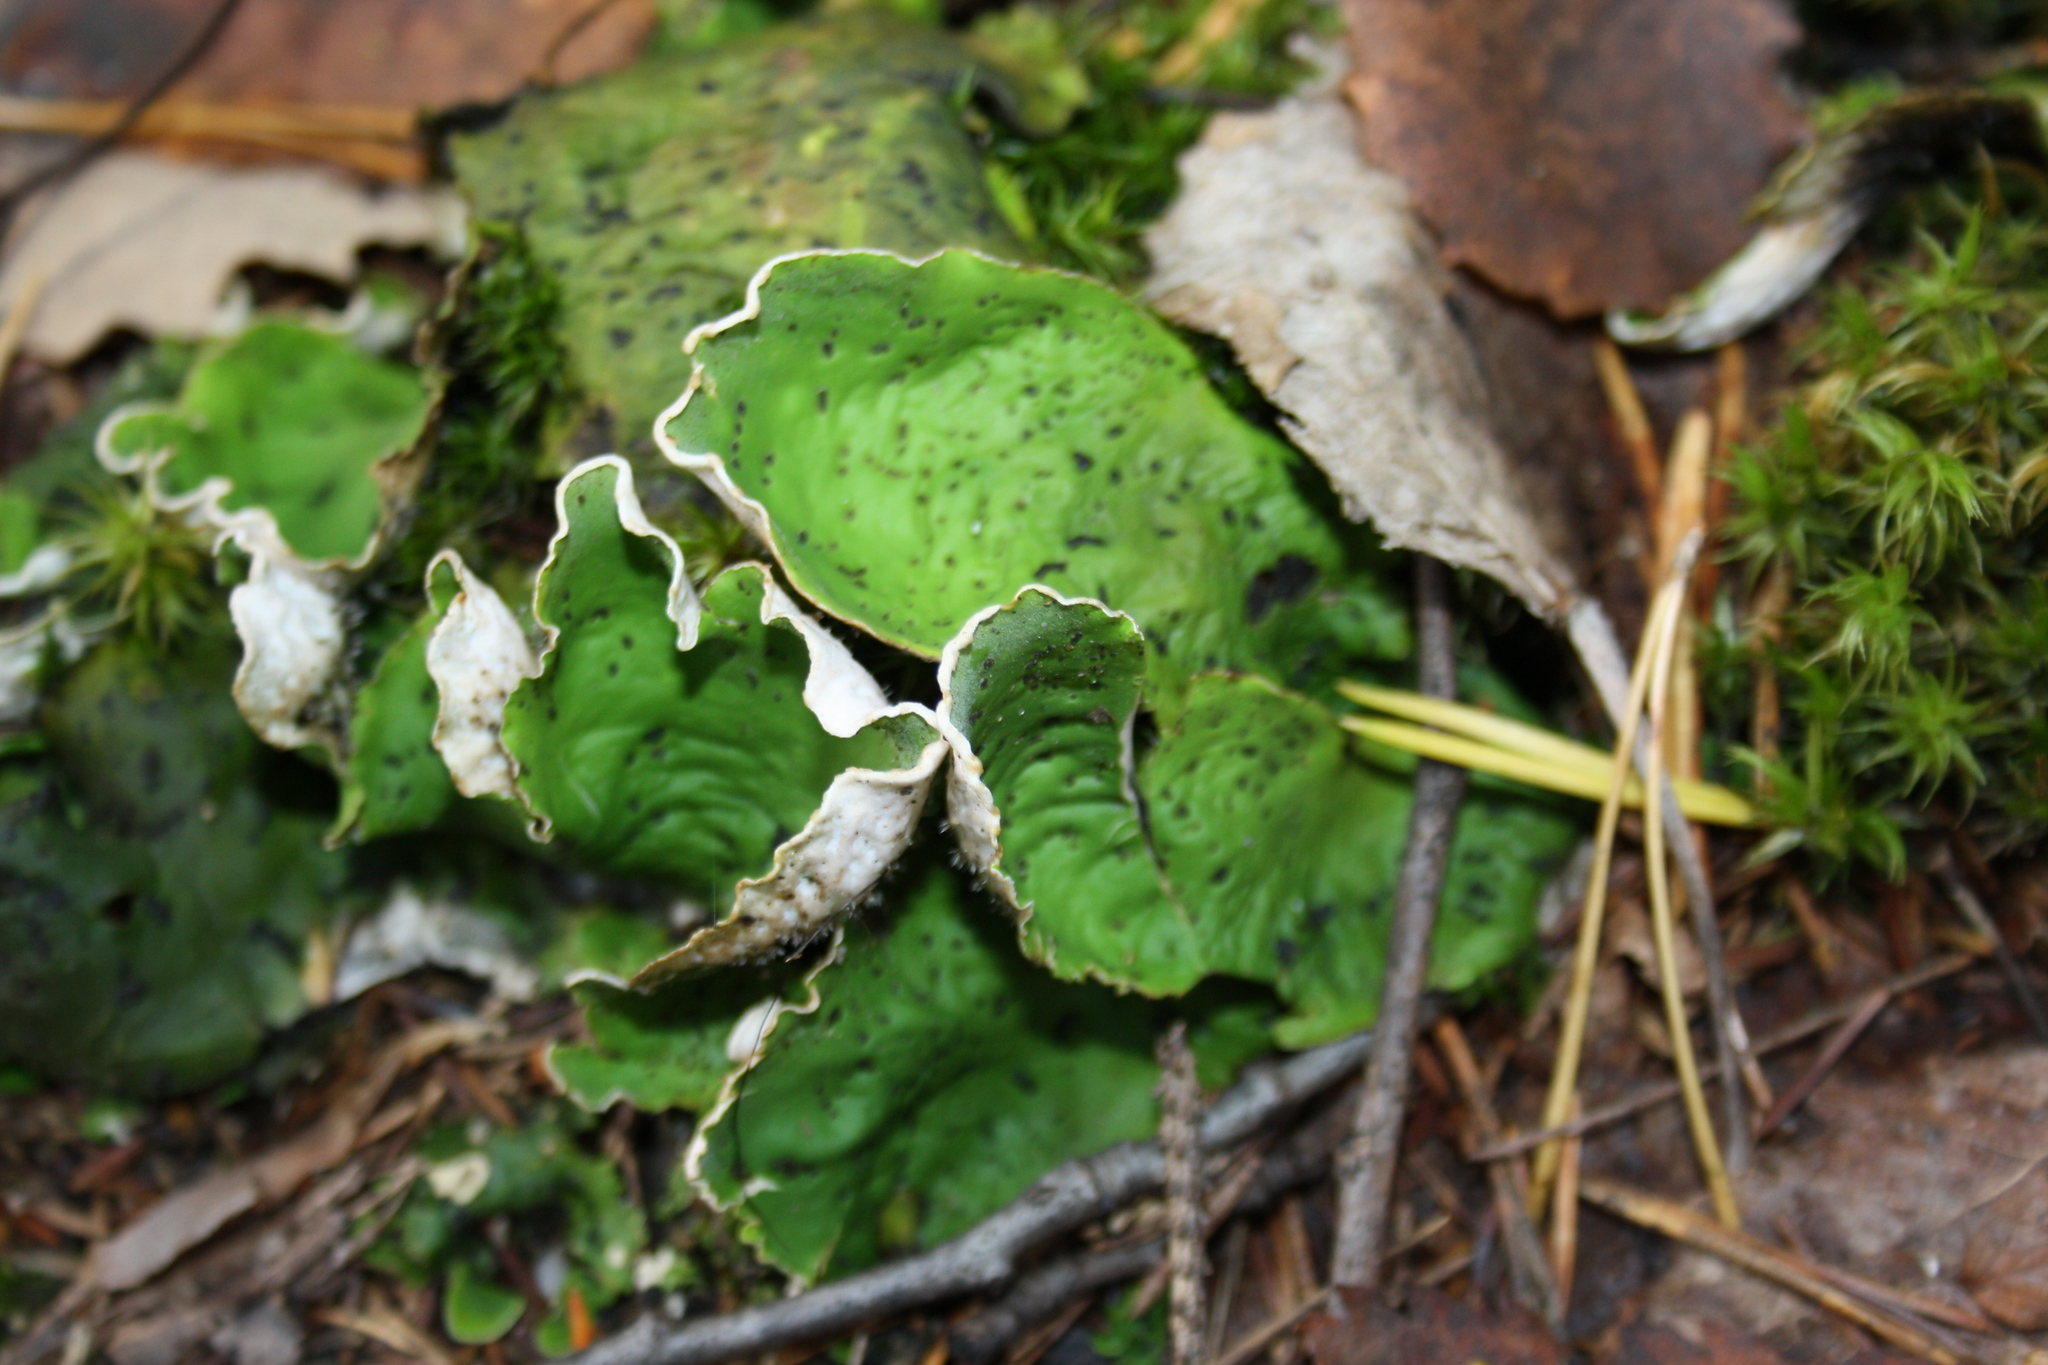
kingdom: Fungi
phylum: Ascomycota
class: Lecanoromycetes
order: Peltigerales
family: Peltigeraceae
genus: Peltigera
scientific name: Peltigera aphthosa
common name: Common freckle pelt lichen
